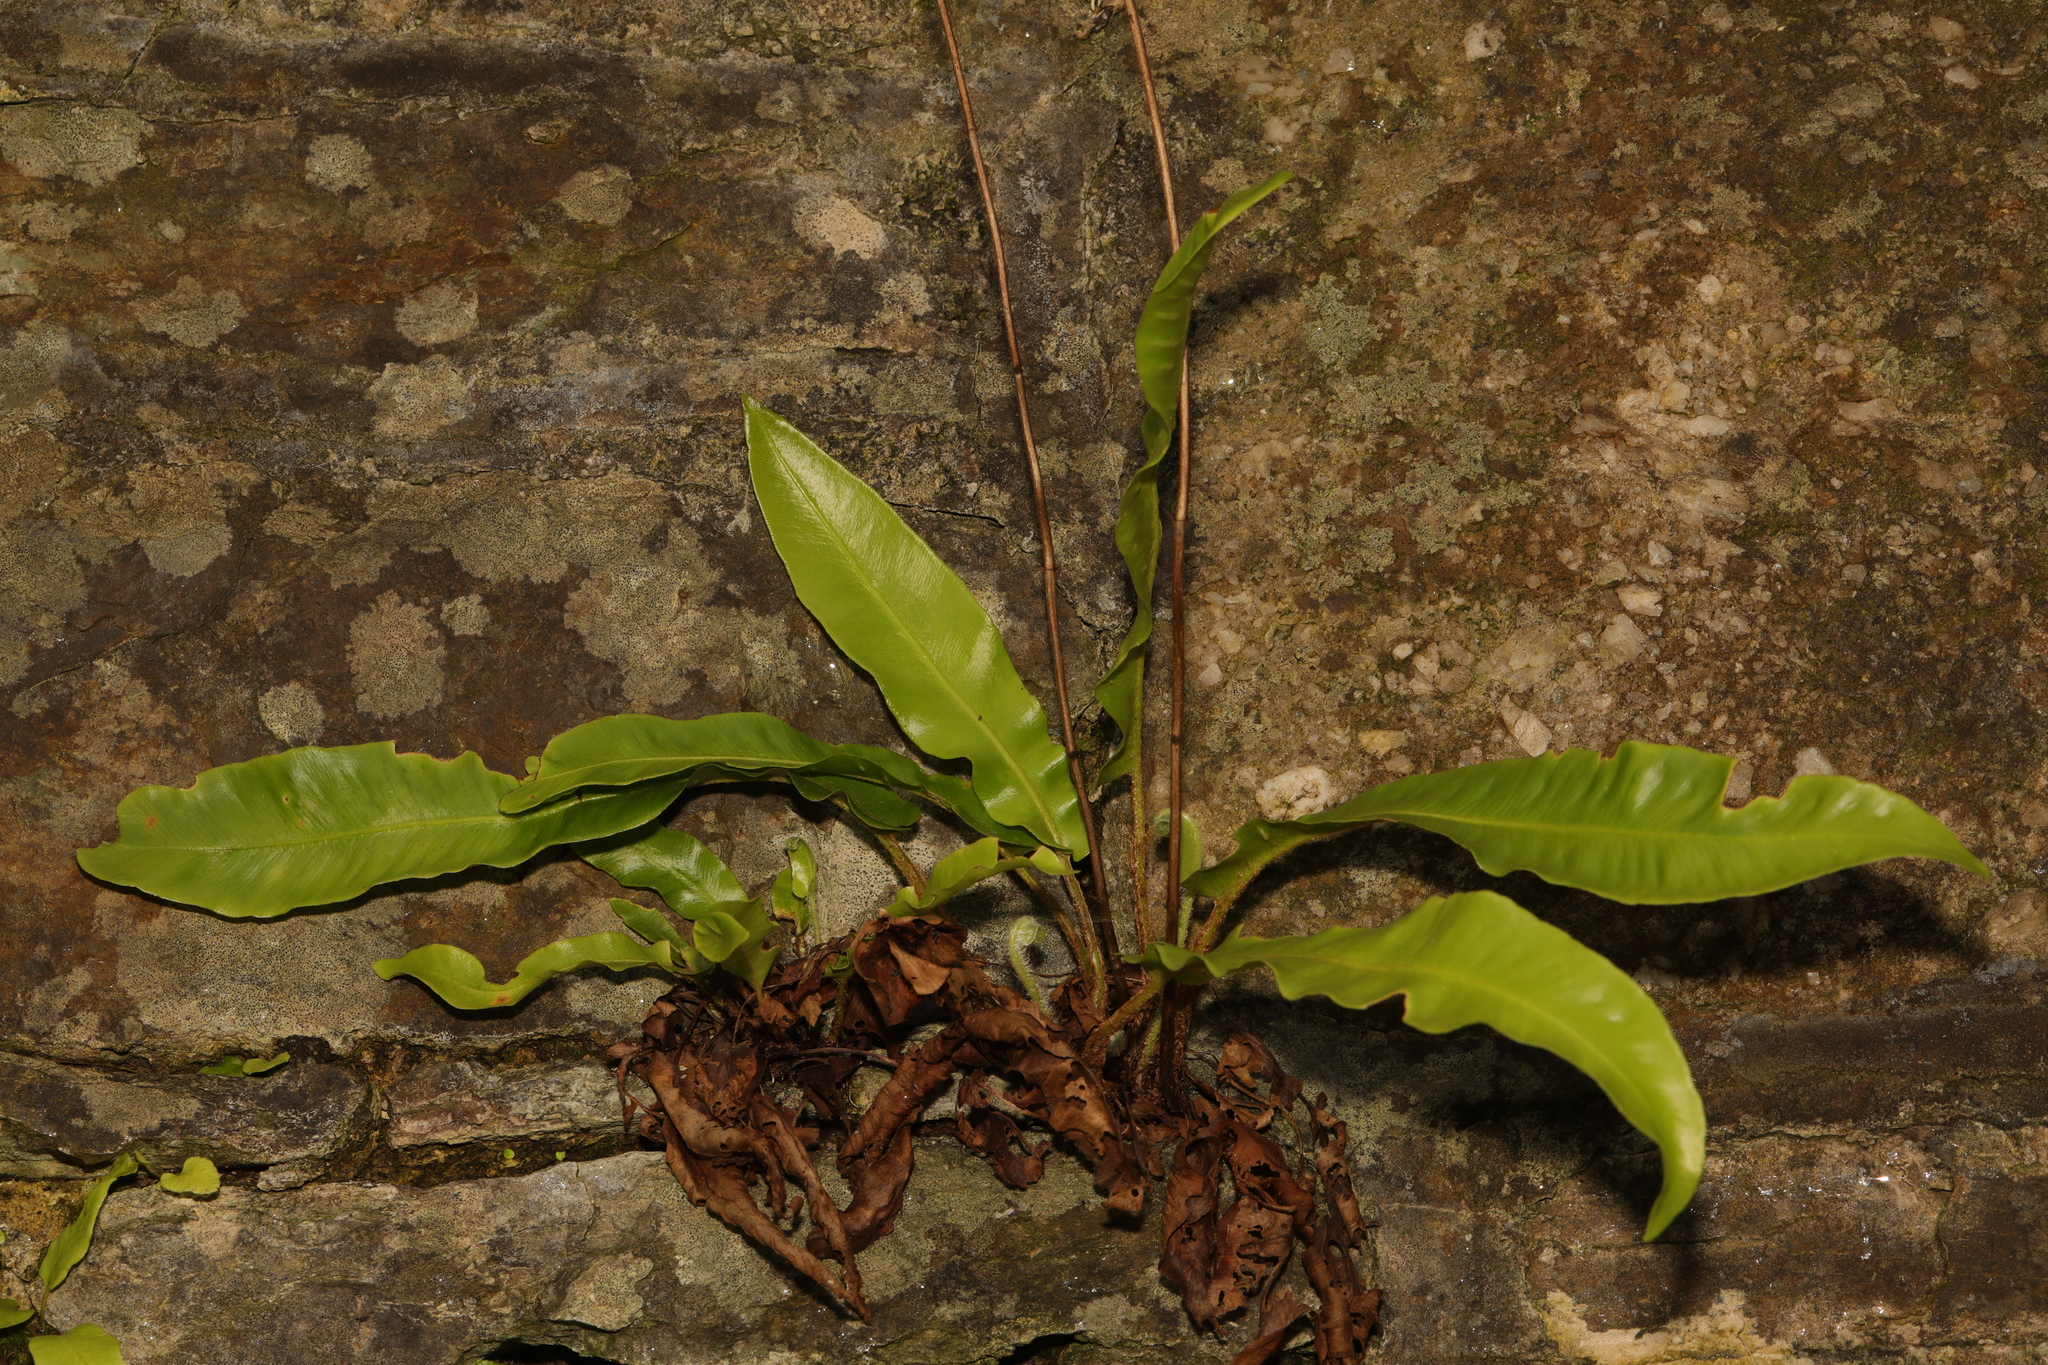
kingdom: Plantae
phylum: Tracheophyta
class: Polypodiopsida
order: Polypodiales
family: Aspleniaceae
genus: Asplenium
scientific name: Asplenium scolopendrium
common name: Hart's-tongue fern
